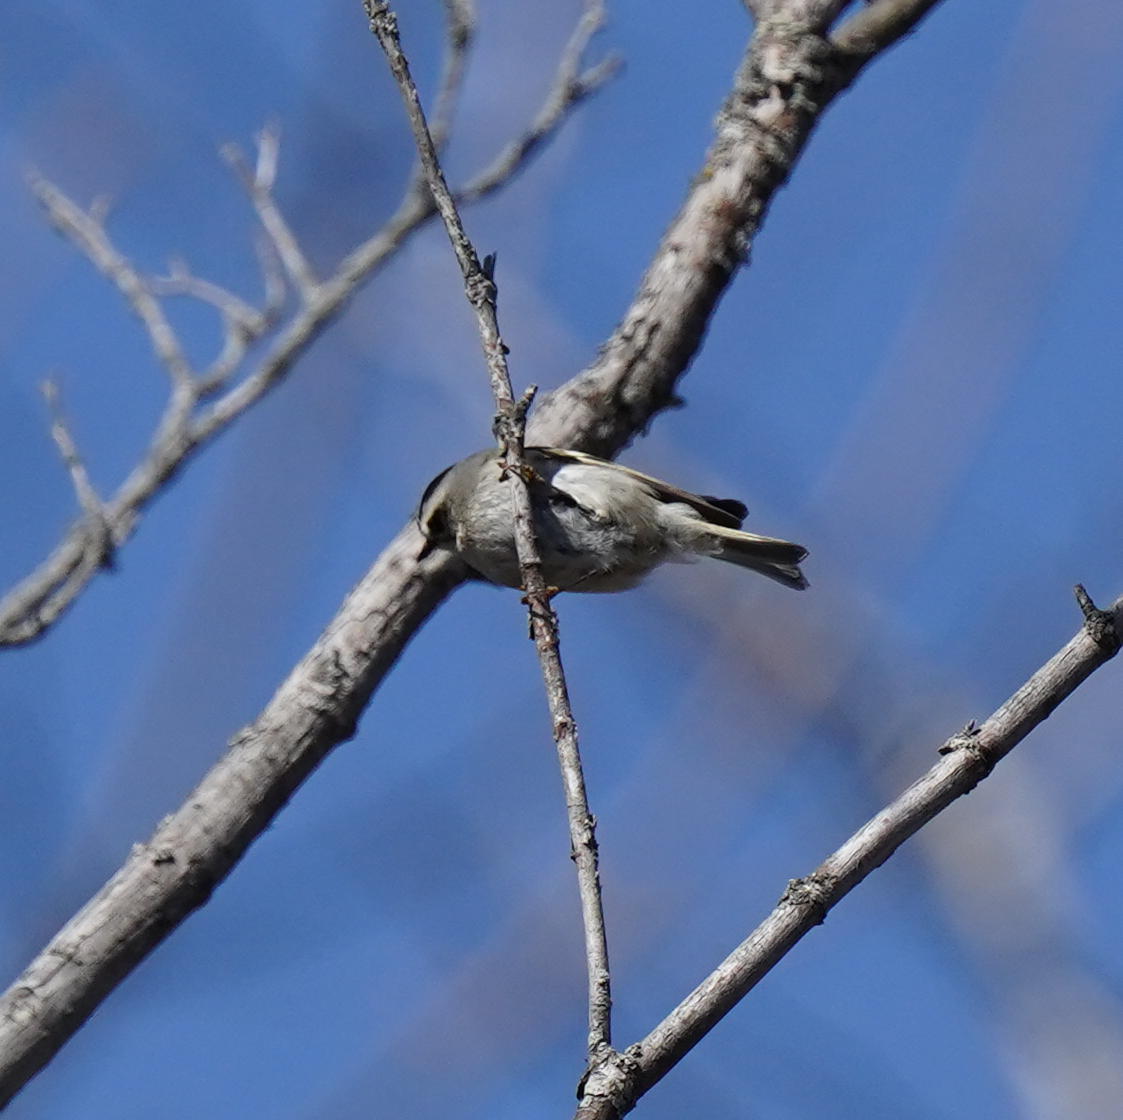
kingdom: Animalia
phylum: Chordata
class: Aves
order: Passeriformes
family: Regulidae
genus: Regulus
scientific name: Regulus satrapa
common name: Golden-crowned kinglet
